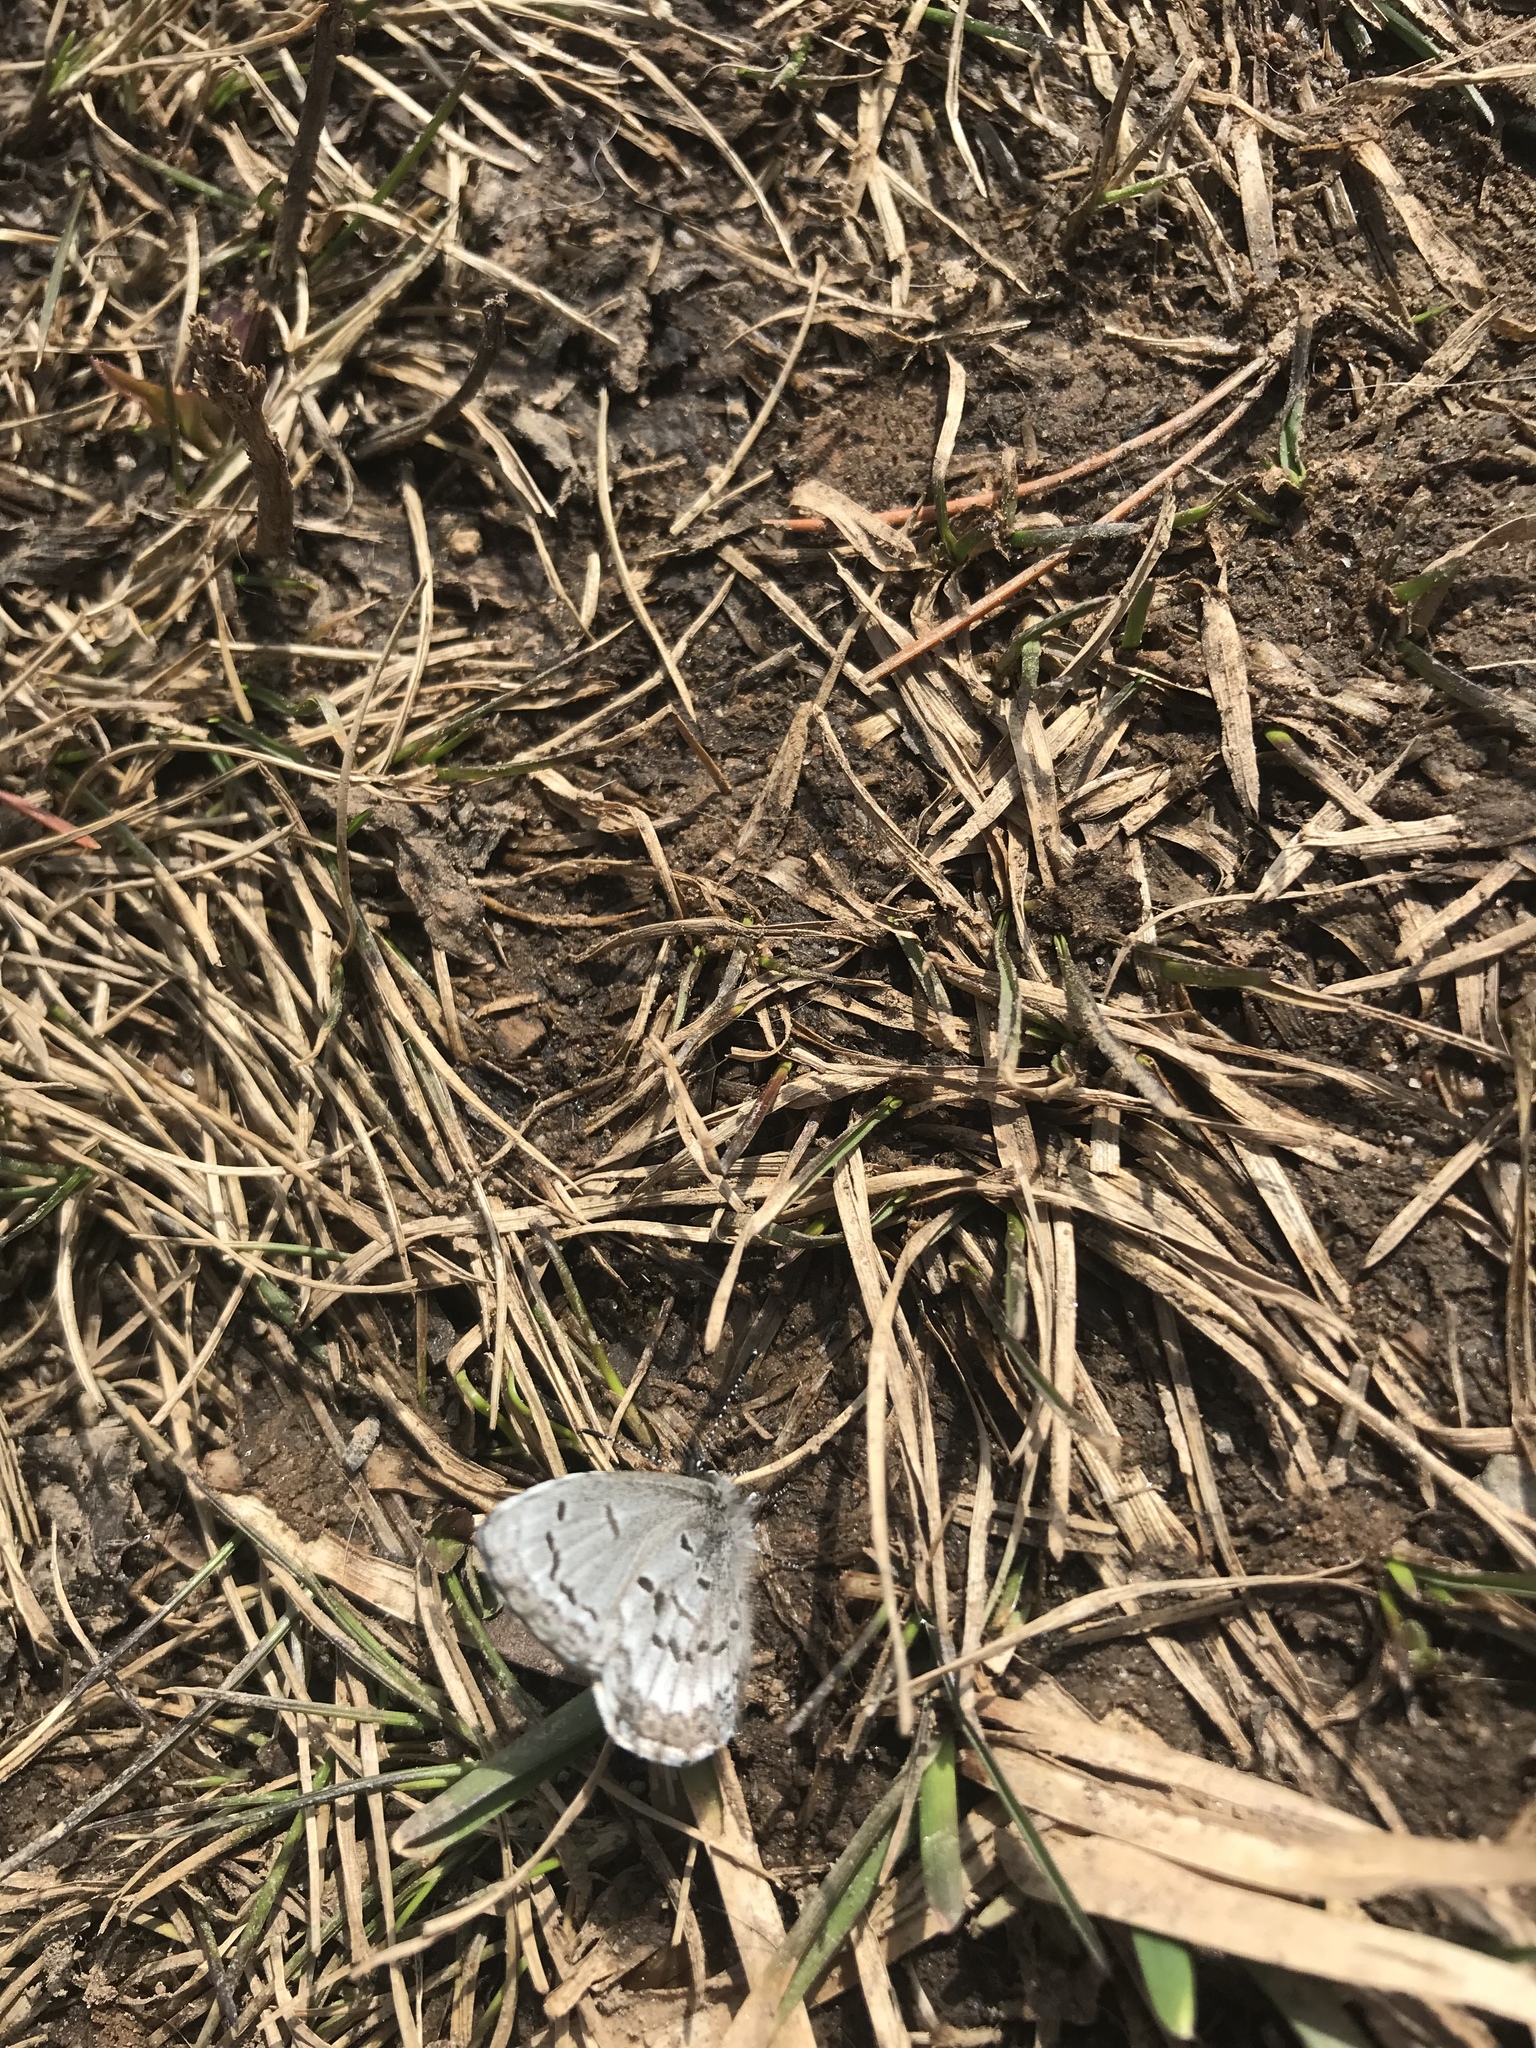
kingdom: Animalia
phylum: Arthropoda
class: Insecta
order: Lepidoptera
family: Lycaenidae
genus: Celastrina
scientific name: Celastrina lucia
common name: Lucia azure
